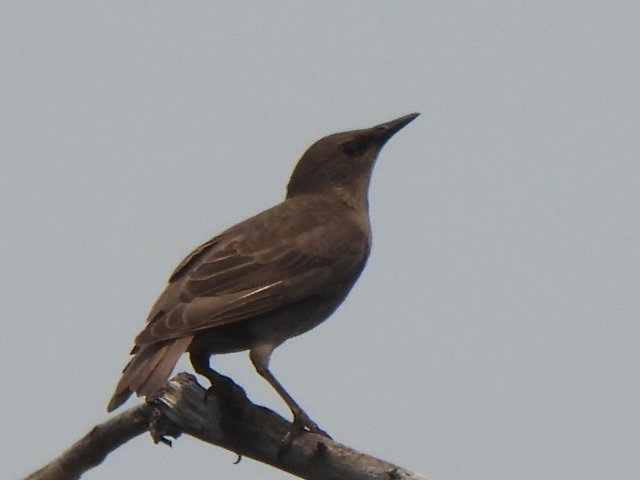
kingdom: Animalia
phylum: Chordata
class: Aves
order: Passeriformes
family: Sturnidae
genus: Sturnus
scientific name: Sturnus vulgaris
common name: Common starling
